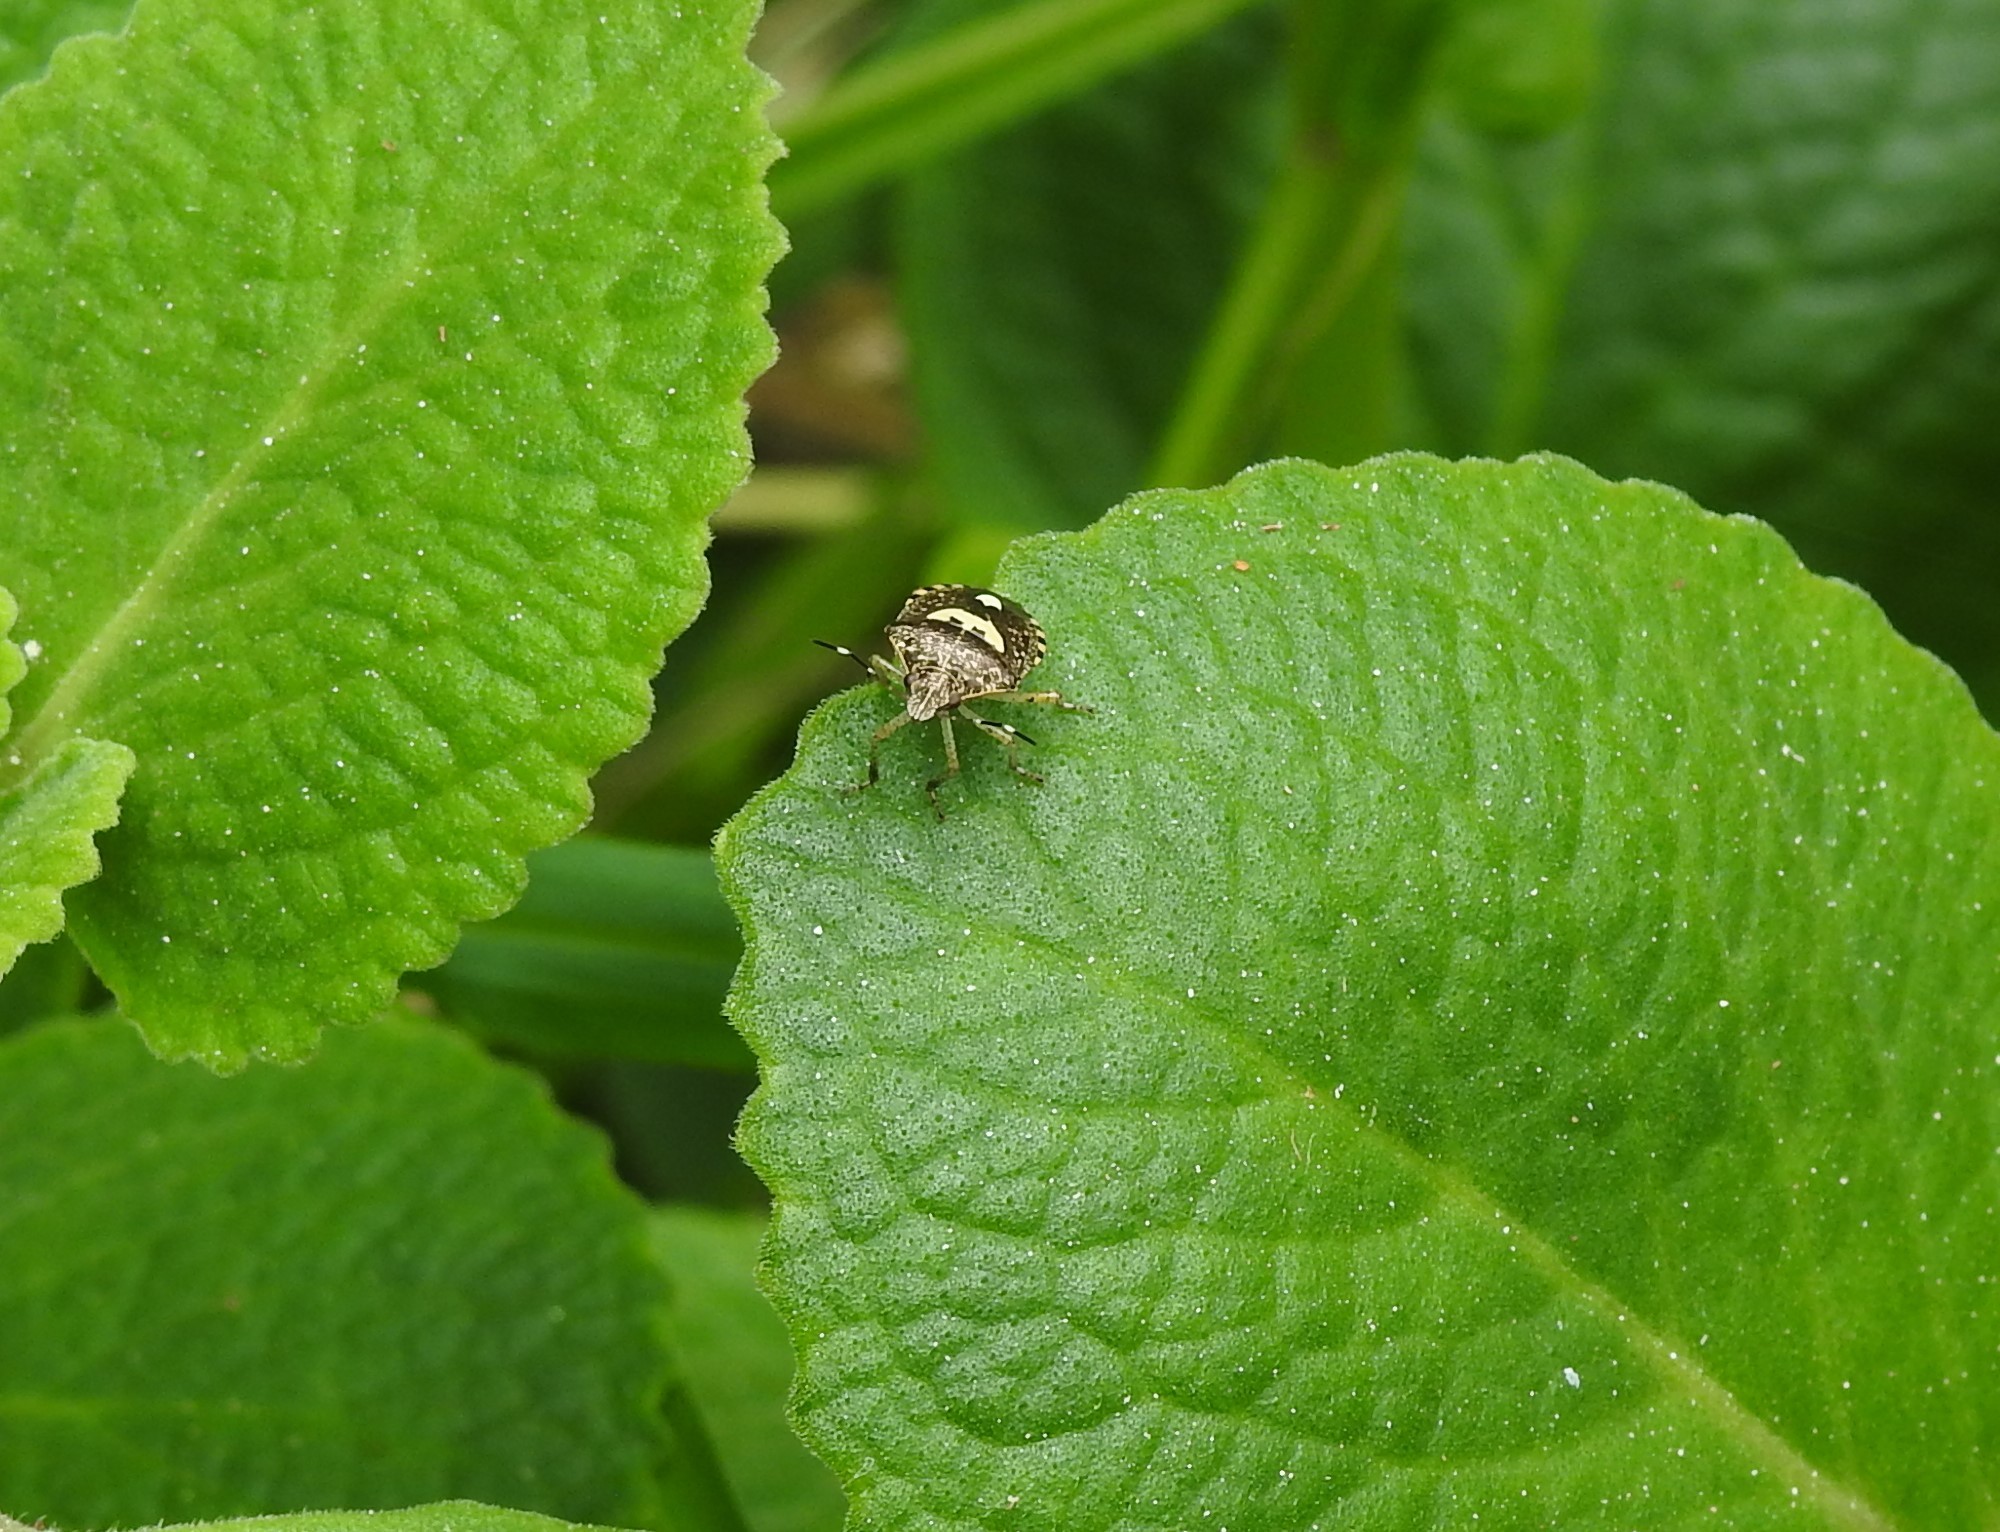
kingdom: Animalia
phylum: Arthropoda
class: Insecta
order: Hemiptera
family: Pentatomidae
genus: Tolumnia
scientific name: Tolumnia basalis
